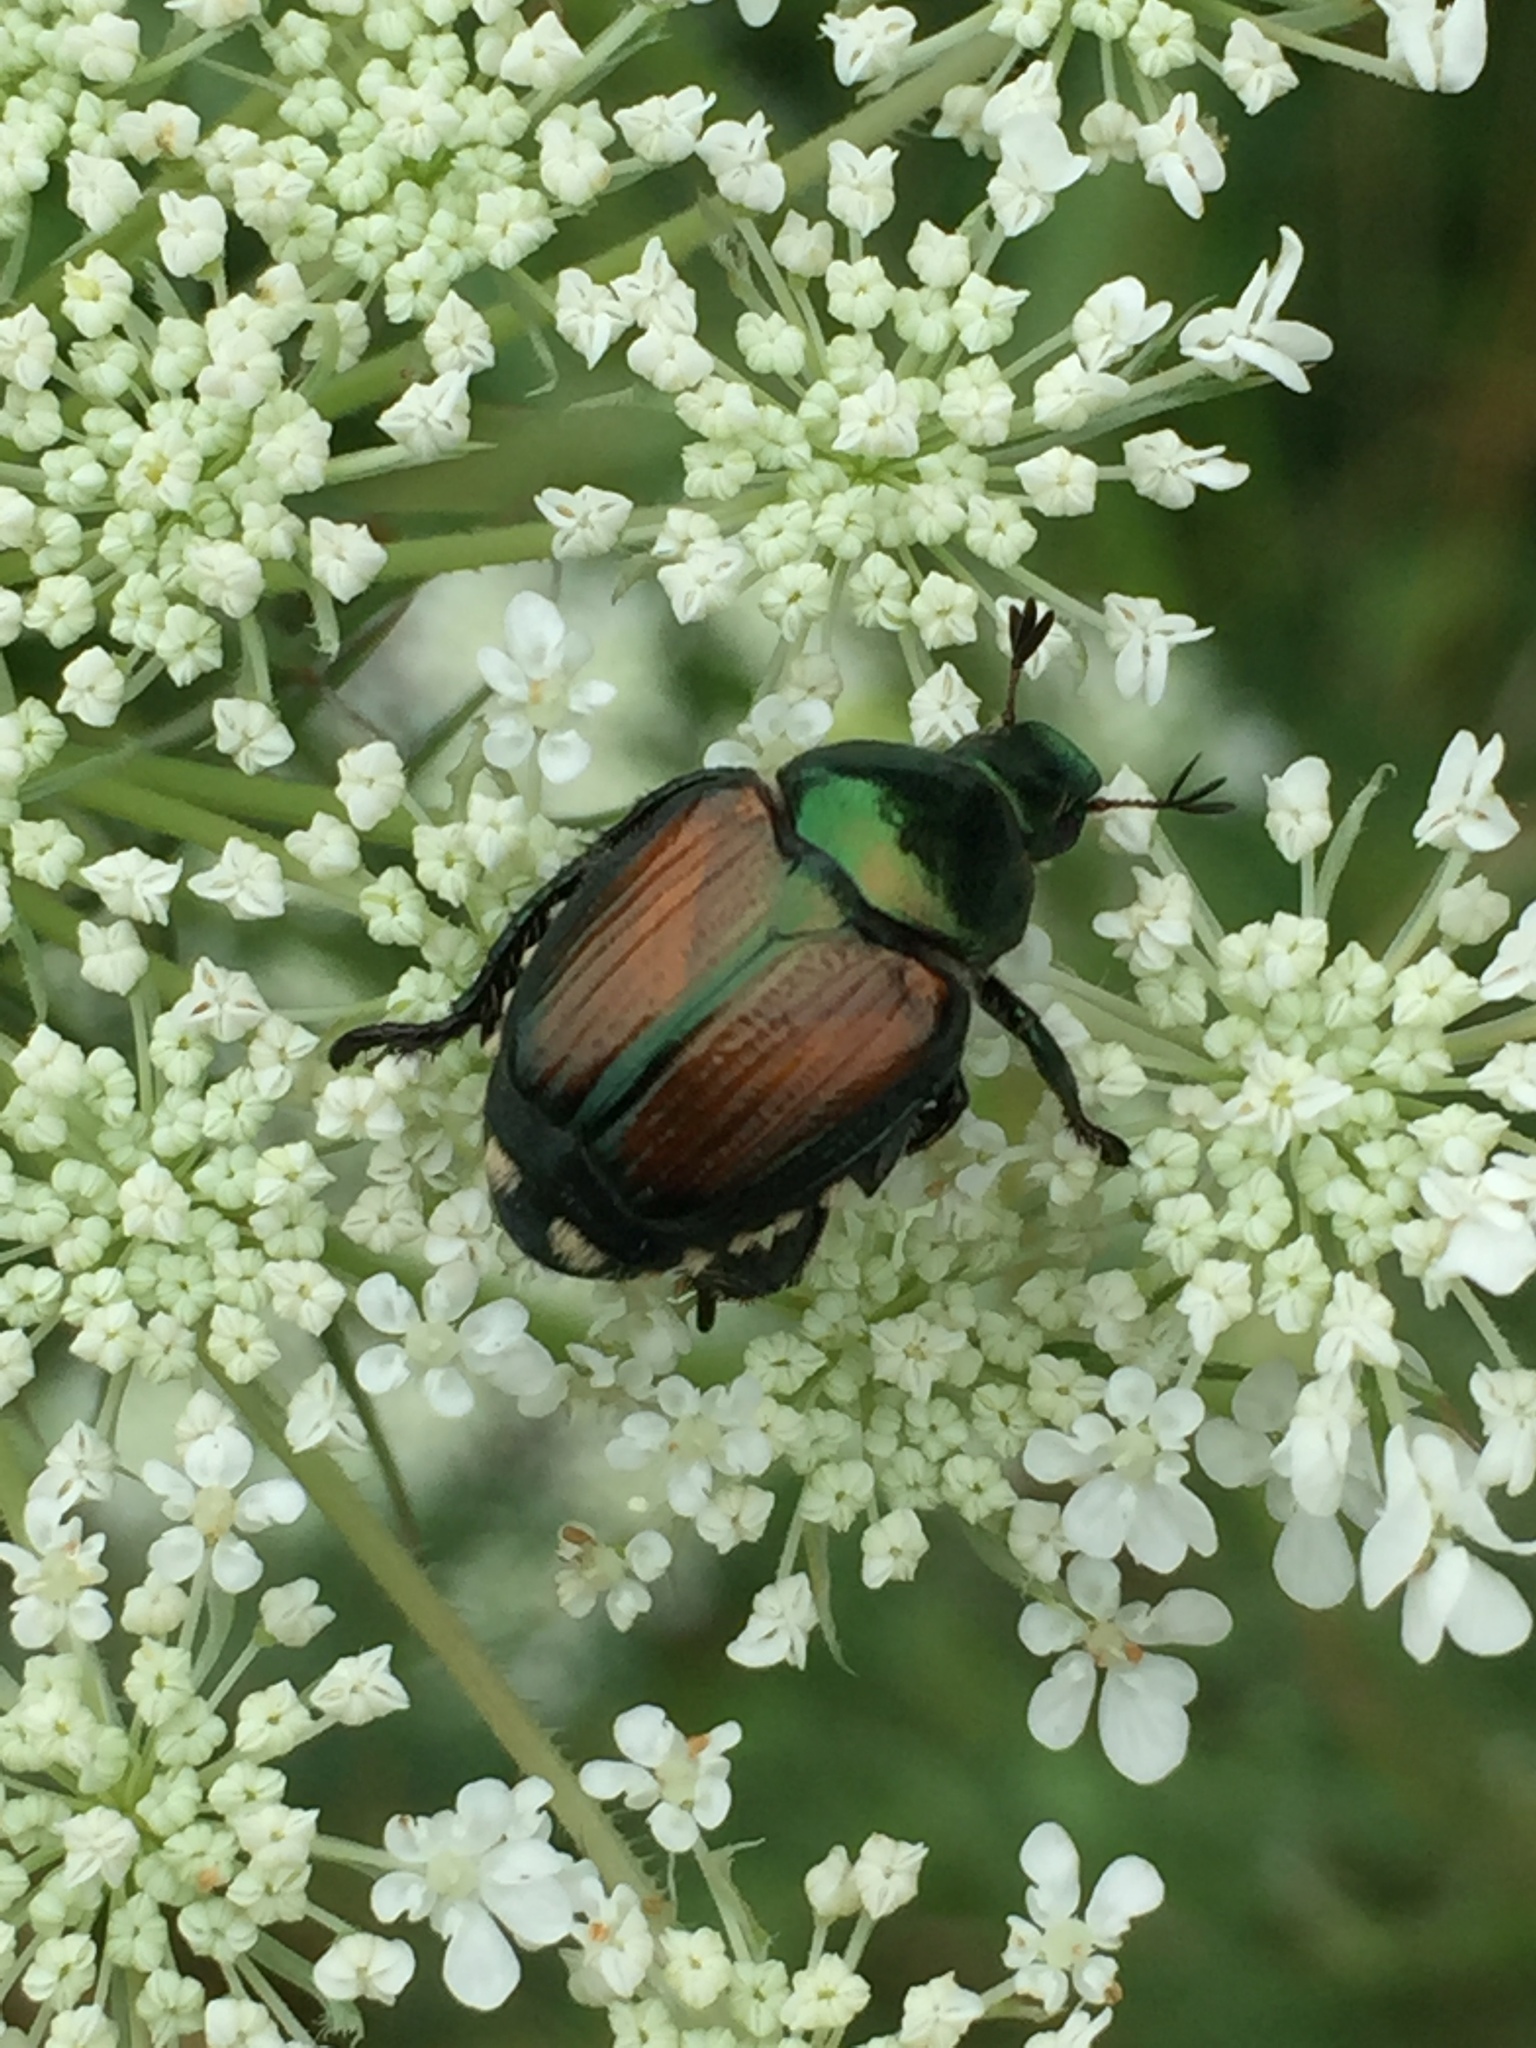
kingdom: Animalia
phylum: Arthropoda
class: Insecta
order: Coleoptera
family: Scarabaeidae
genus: Popillia
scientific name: Popillia japonica
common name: Japanese beetle
